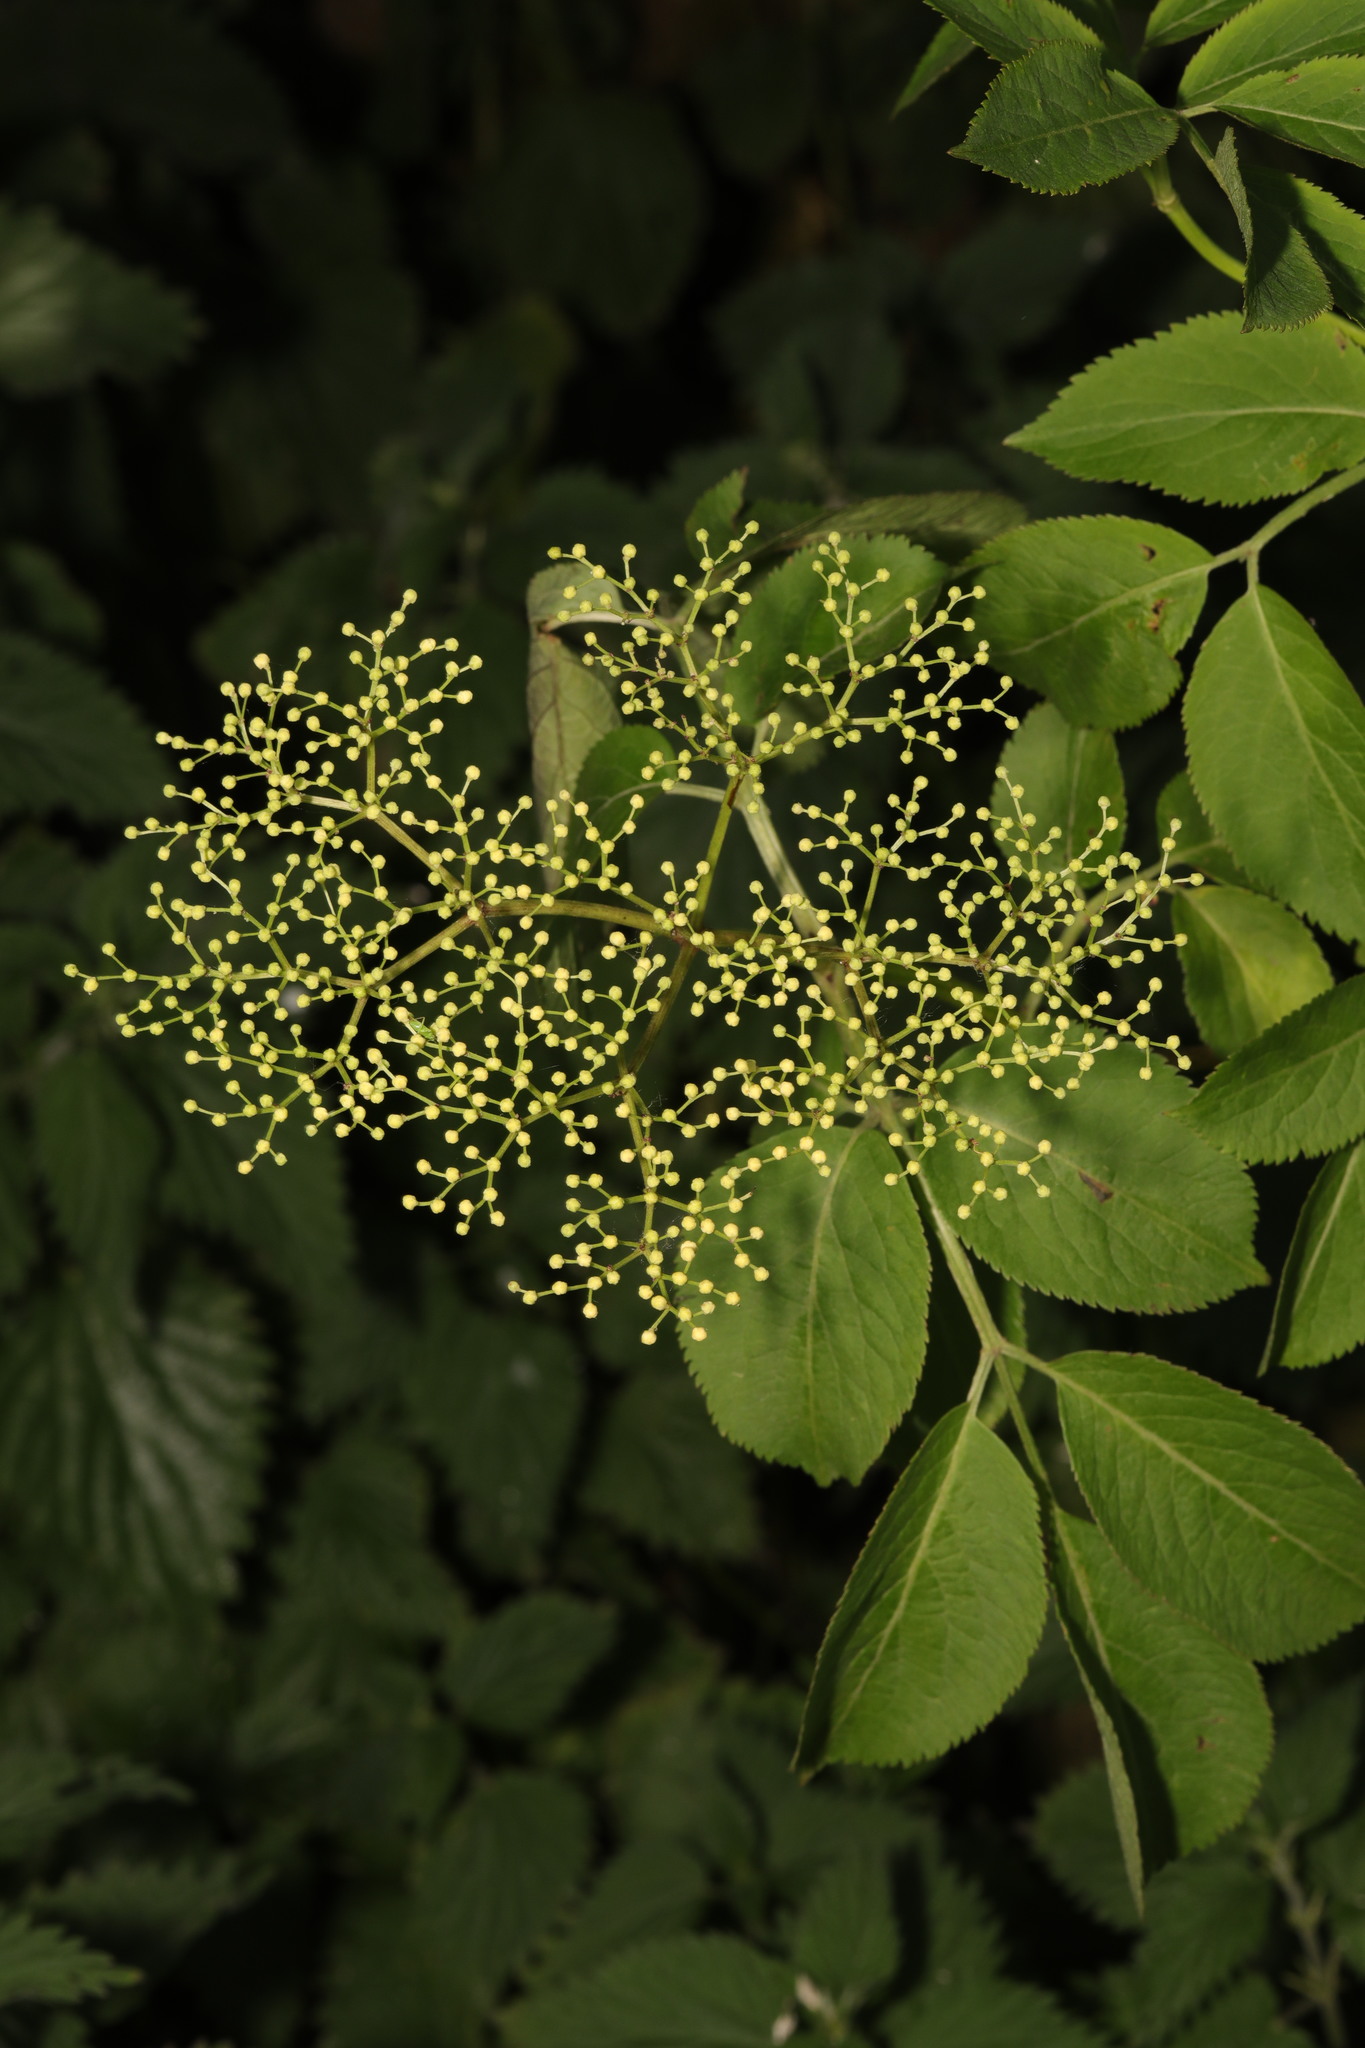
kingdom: Plantae
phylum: Tracheophyta
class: Magnoliopsida
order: Dipsacales
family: Viburnaceae
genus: Sambucus
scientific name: Sambucus nigra
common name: Elder
